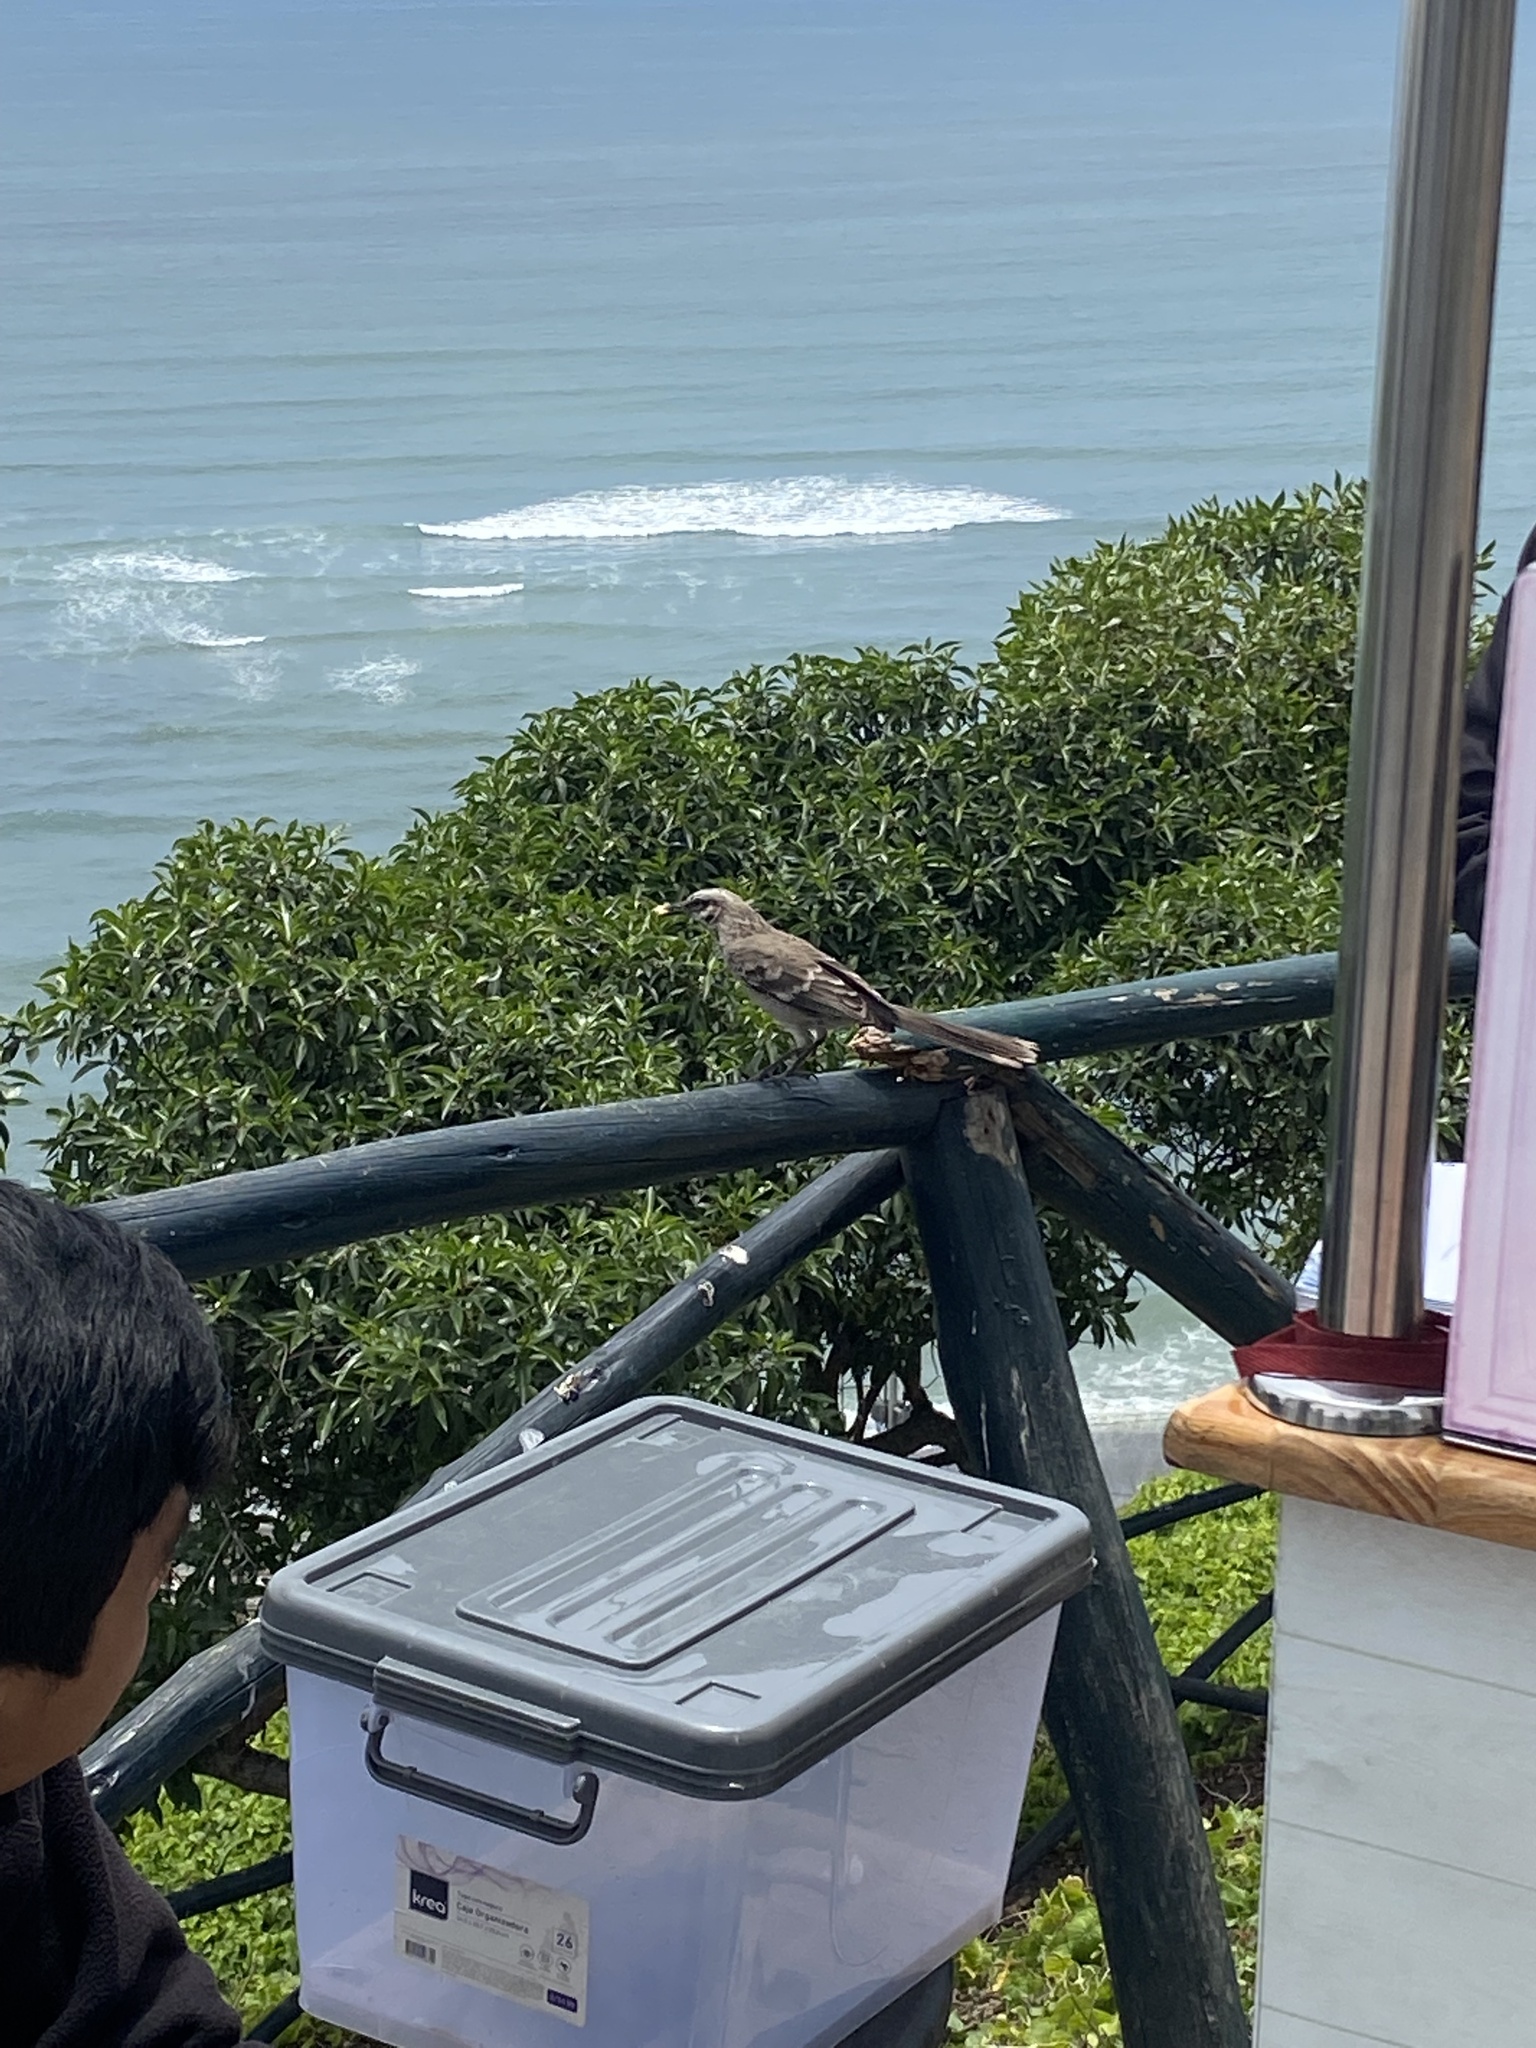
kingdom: Animalia
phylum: Chordata
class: Aves
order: Passeriformes
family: Mimidae
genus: Mimus
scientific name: Mimus longicaudatus
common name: Long-tailed mockingbird
